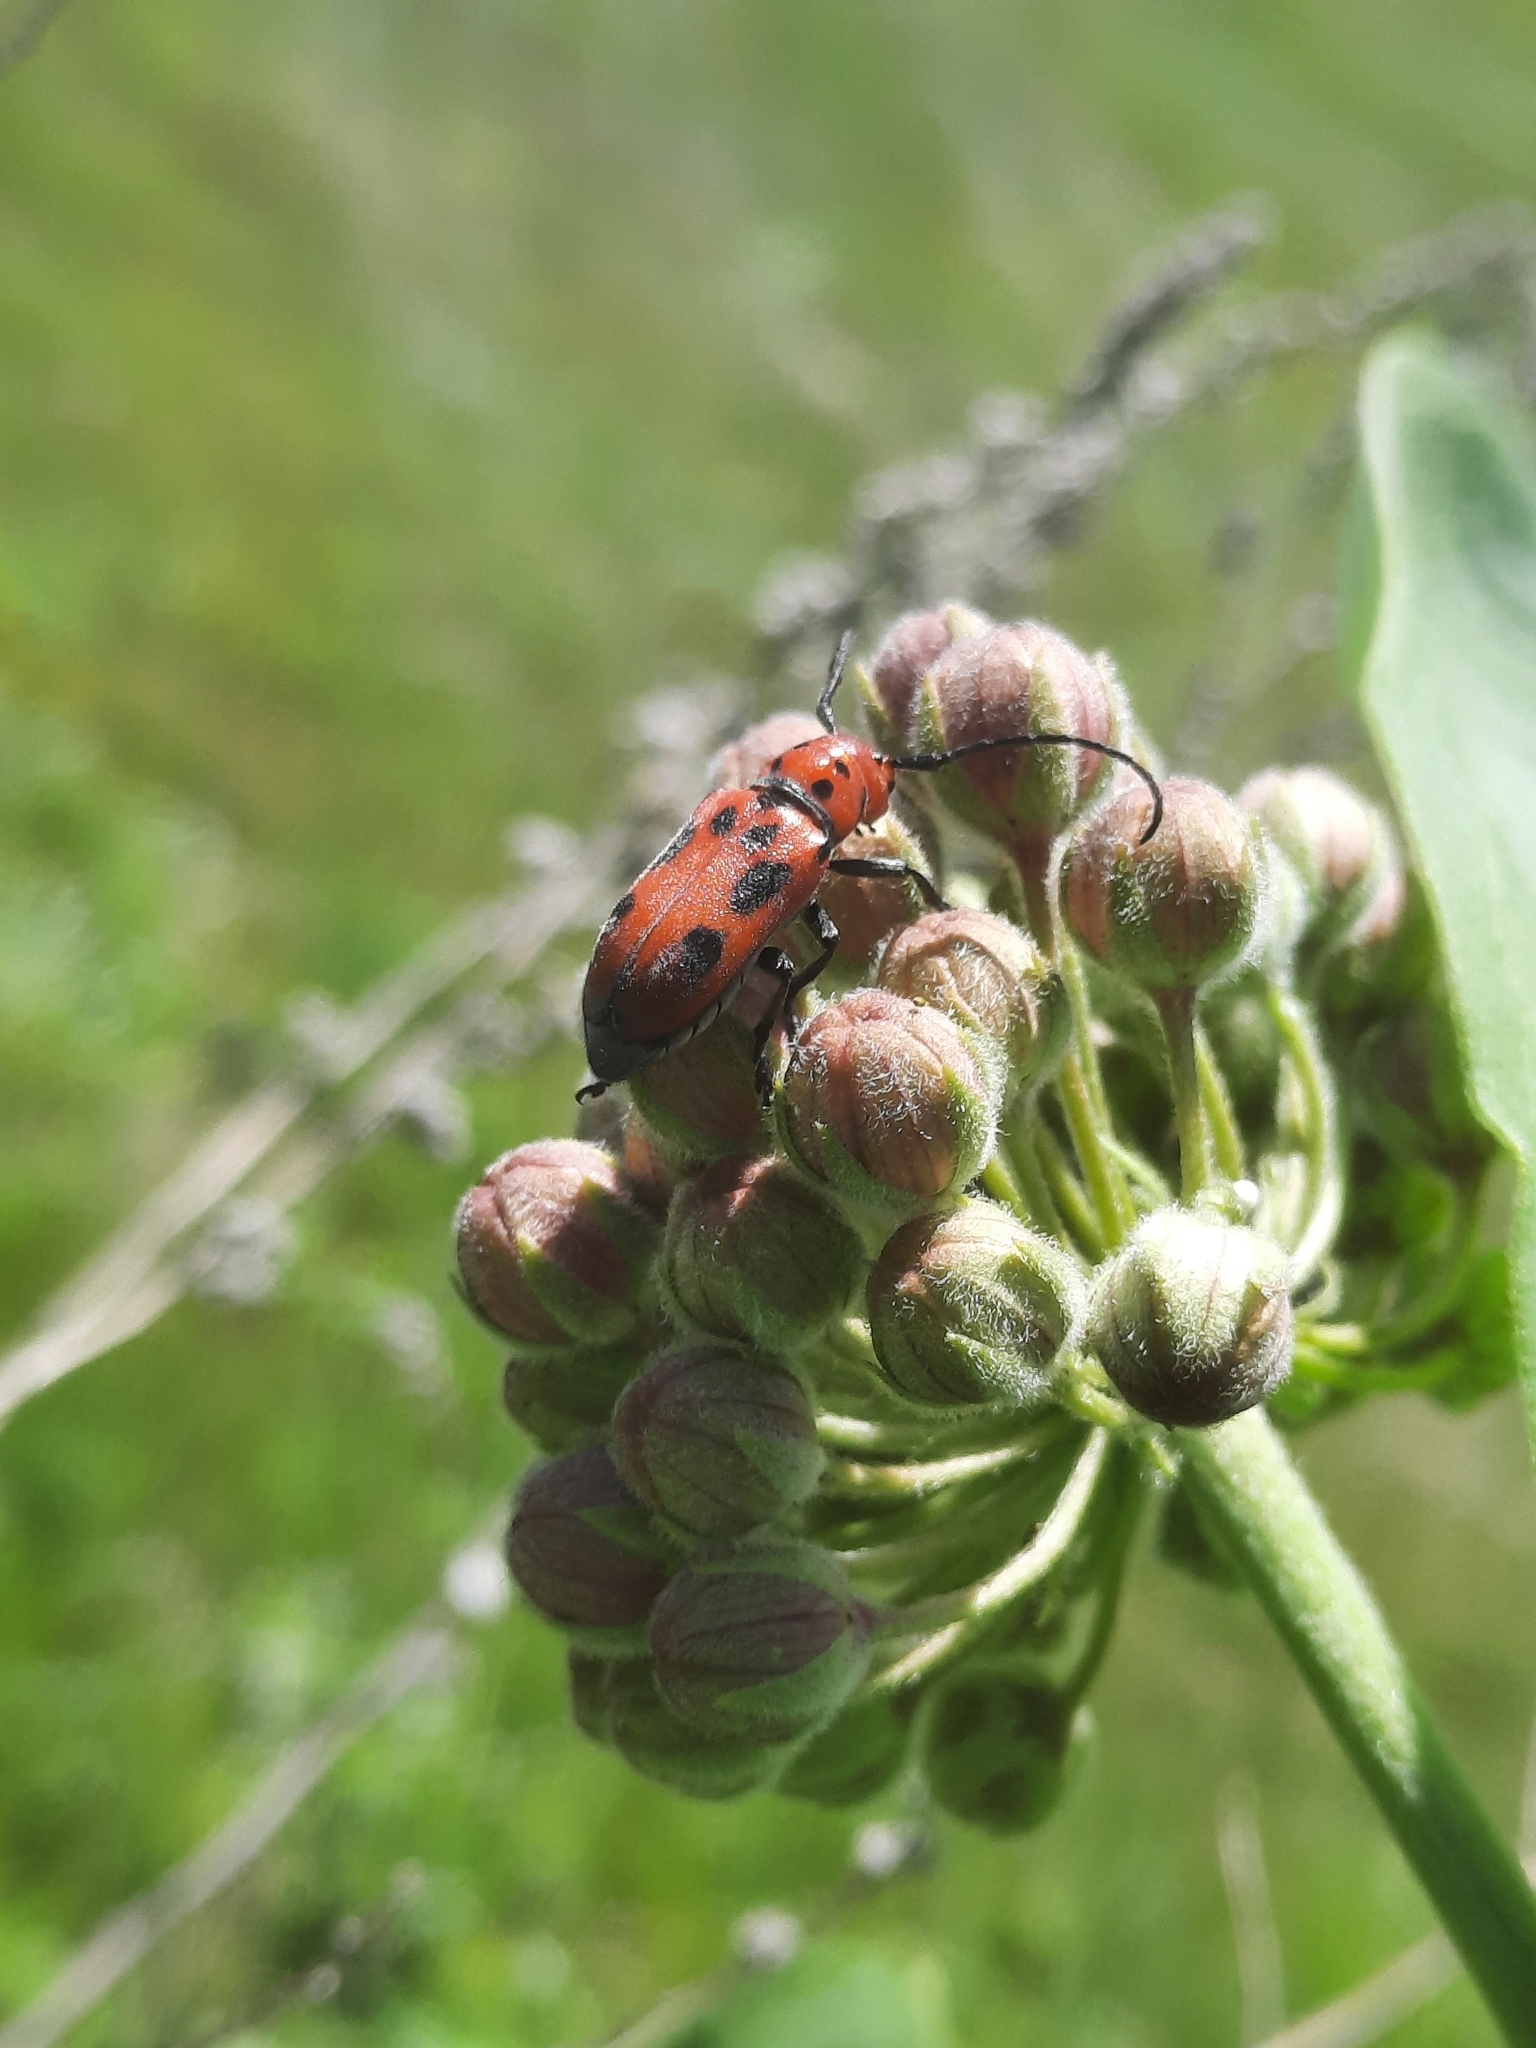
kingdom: Animalia
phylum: Arthropoda
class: Insecta
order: Coleoptera
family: Cerambycidae
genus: Tetraopes
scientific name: Tetraopes tetrophthalmus
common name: Red milkweed beetle
